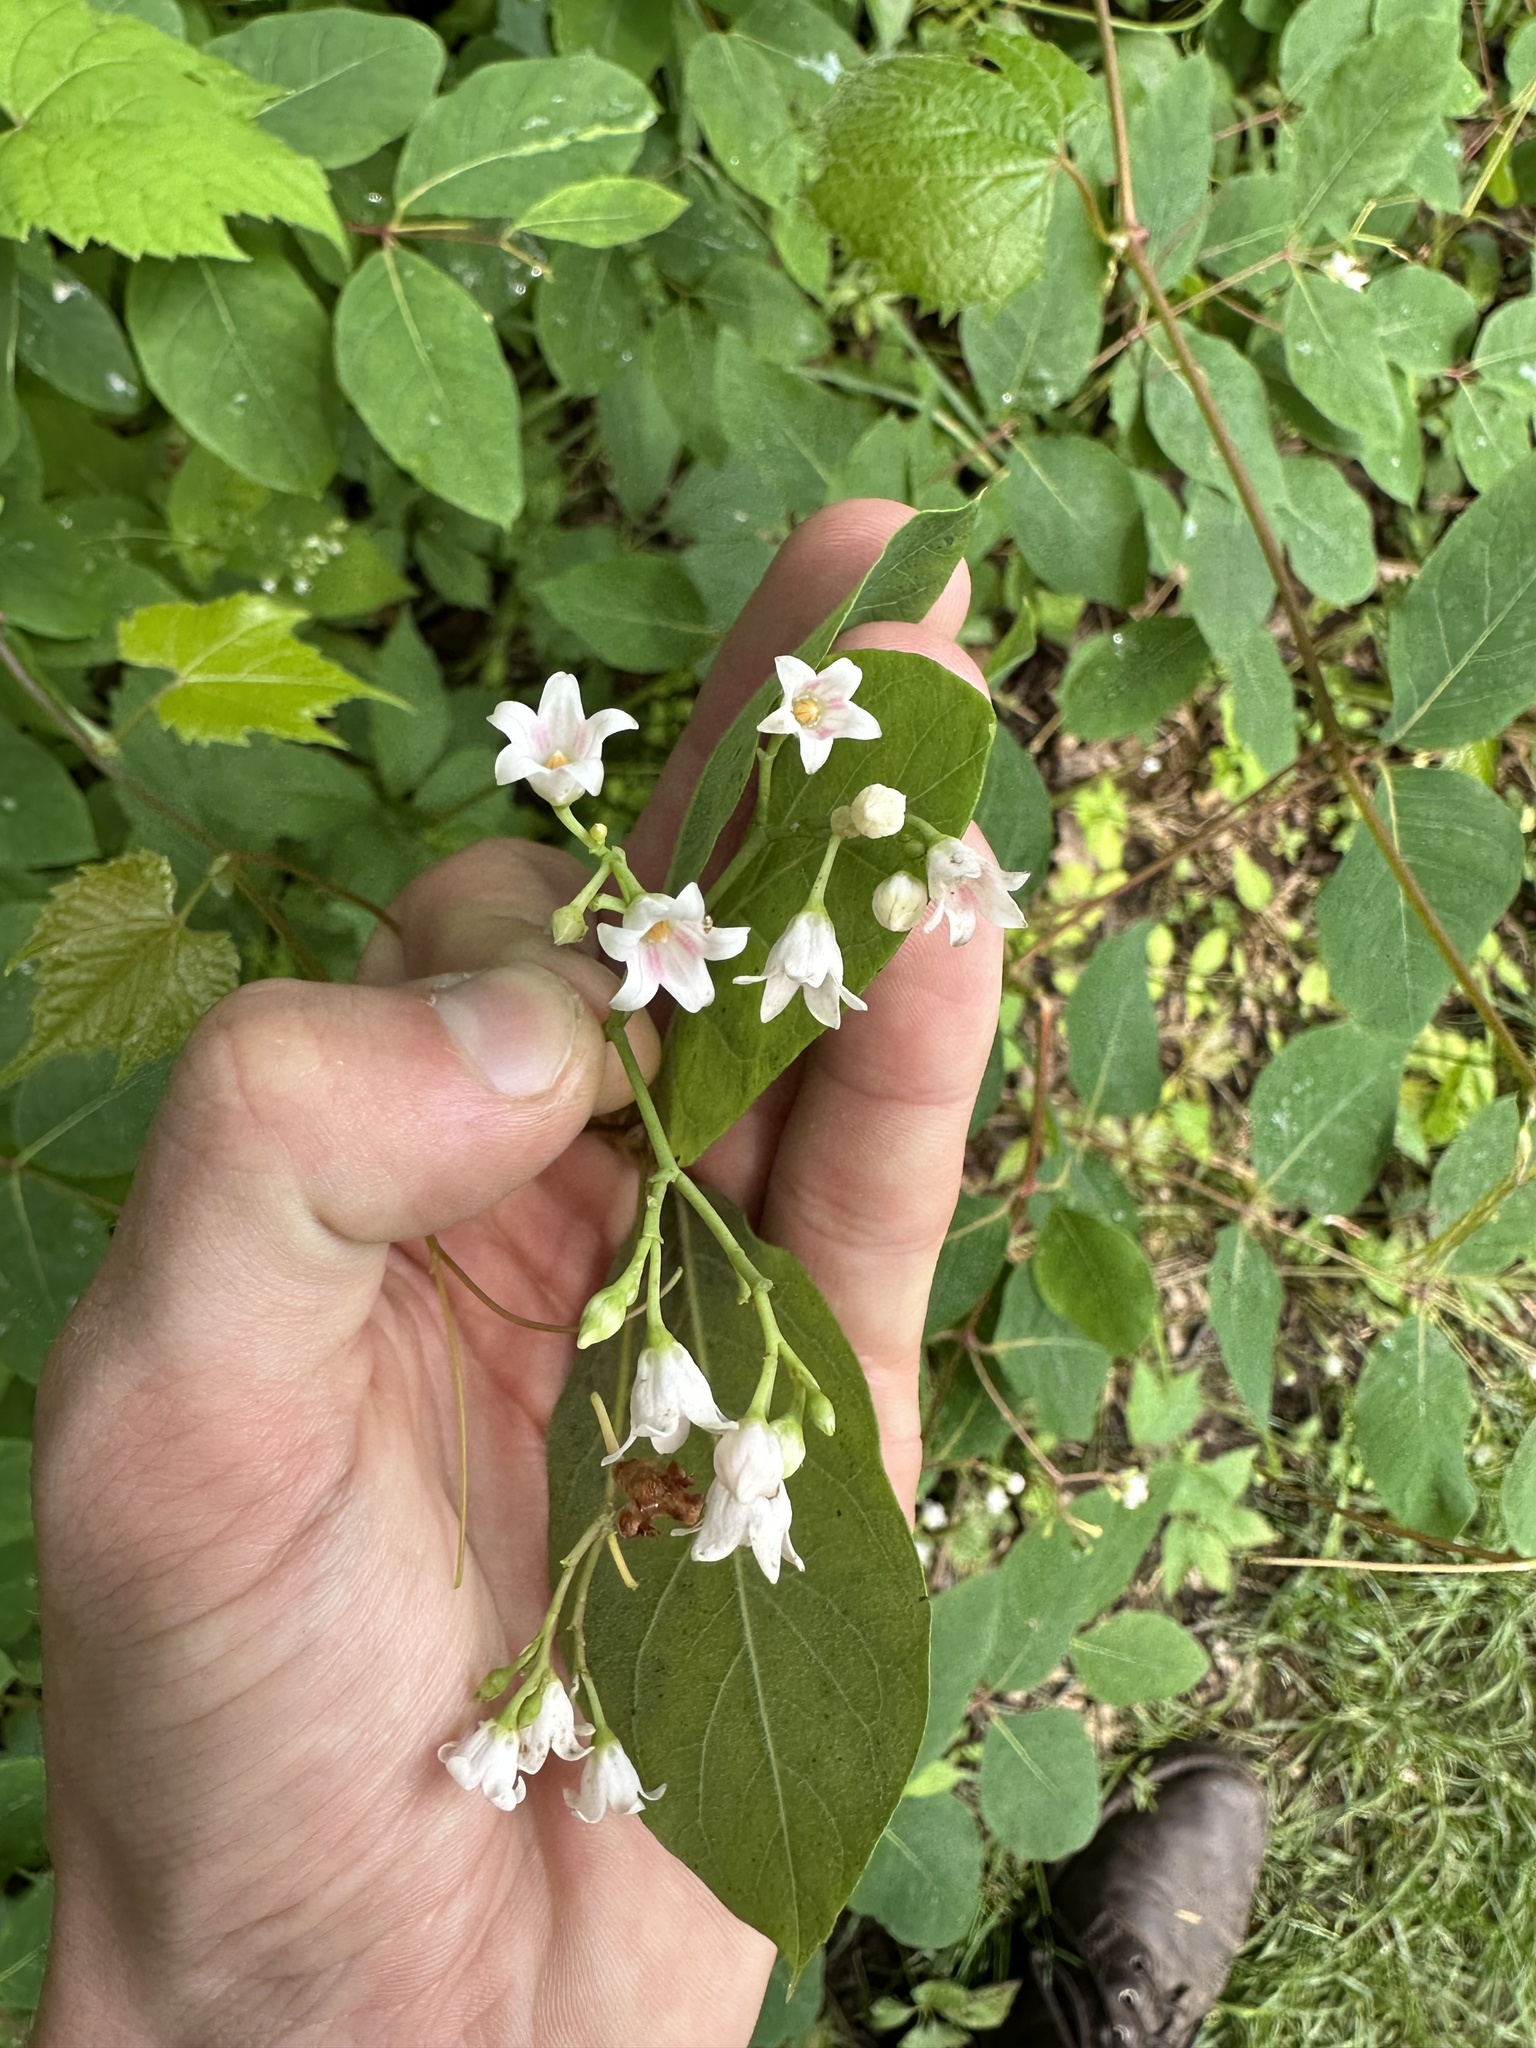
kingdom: Plantae
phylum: Tracheophyta
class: Magnoliopsida
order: Gentianales
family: Apocynaceae
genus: Apocynum
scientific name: Apocynum androsaemifolium
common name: Spreading dogbane
